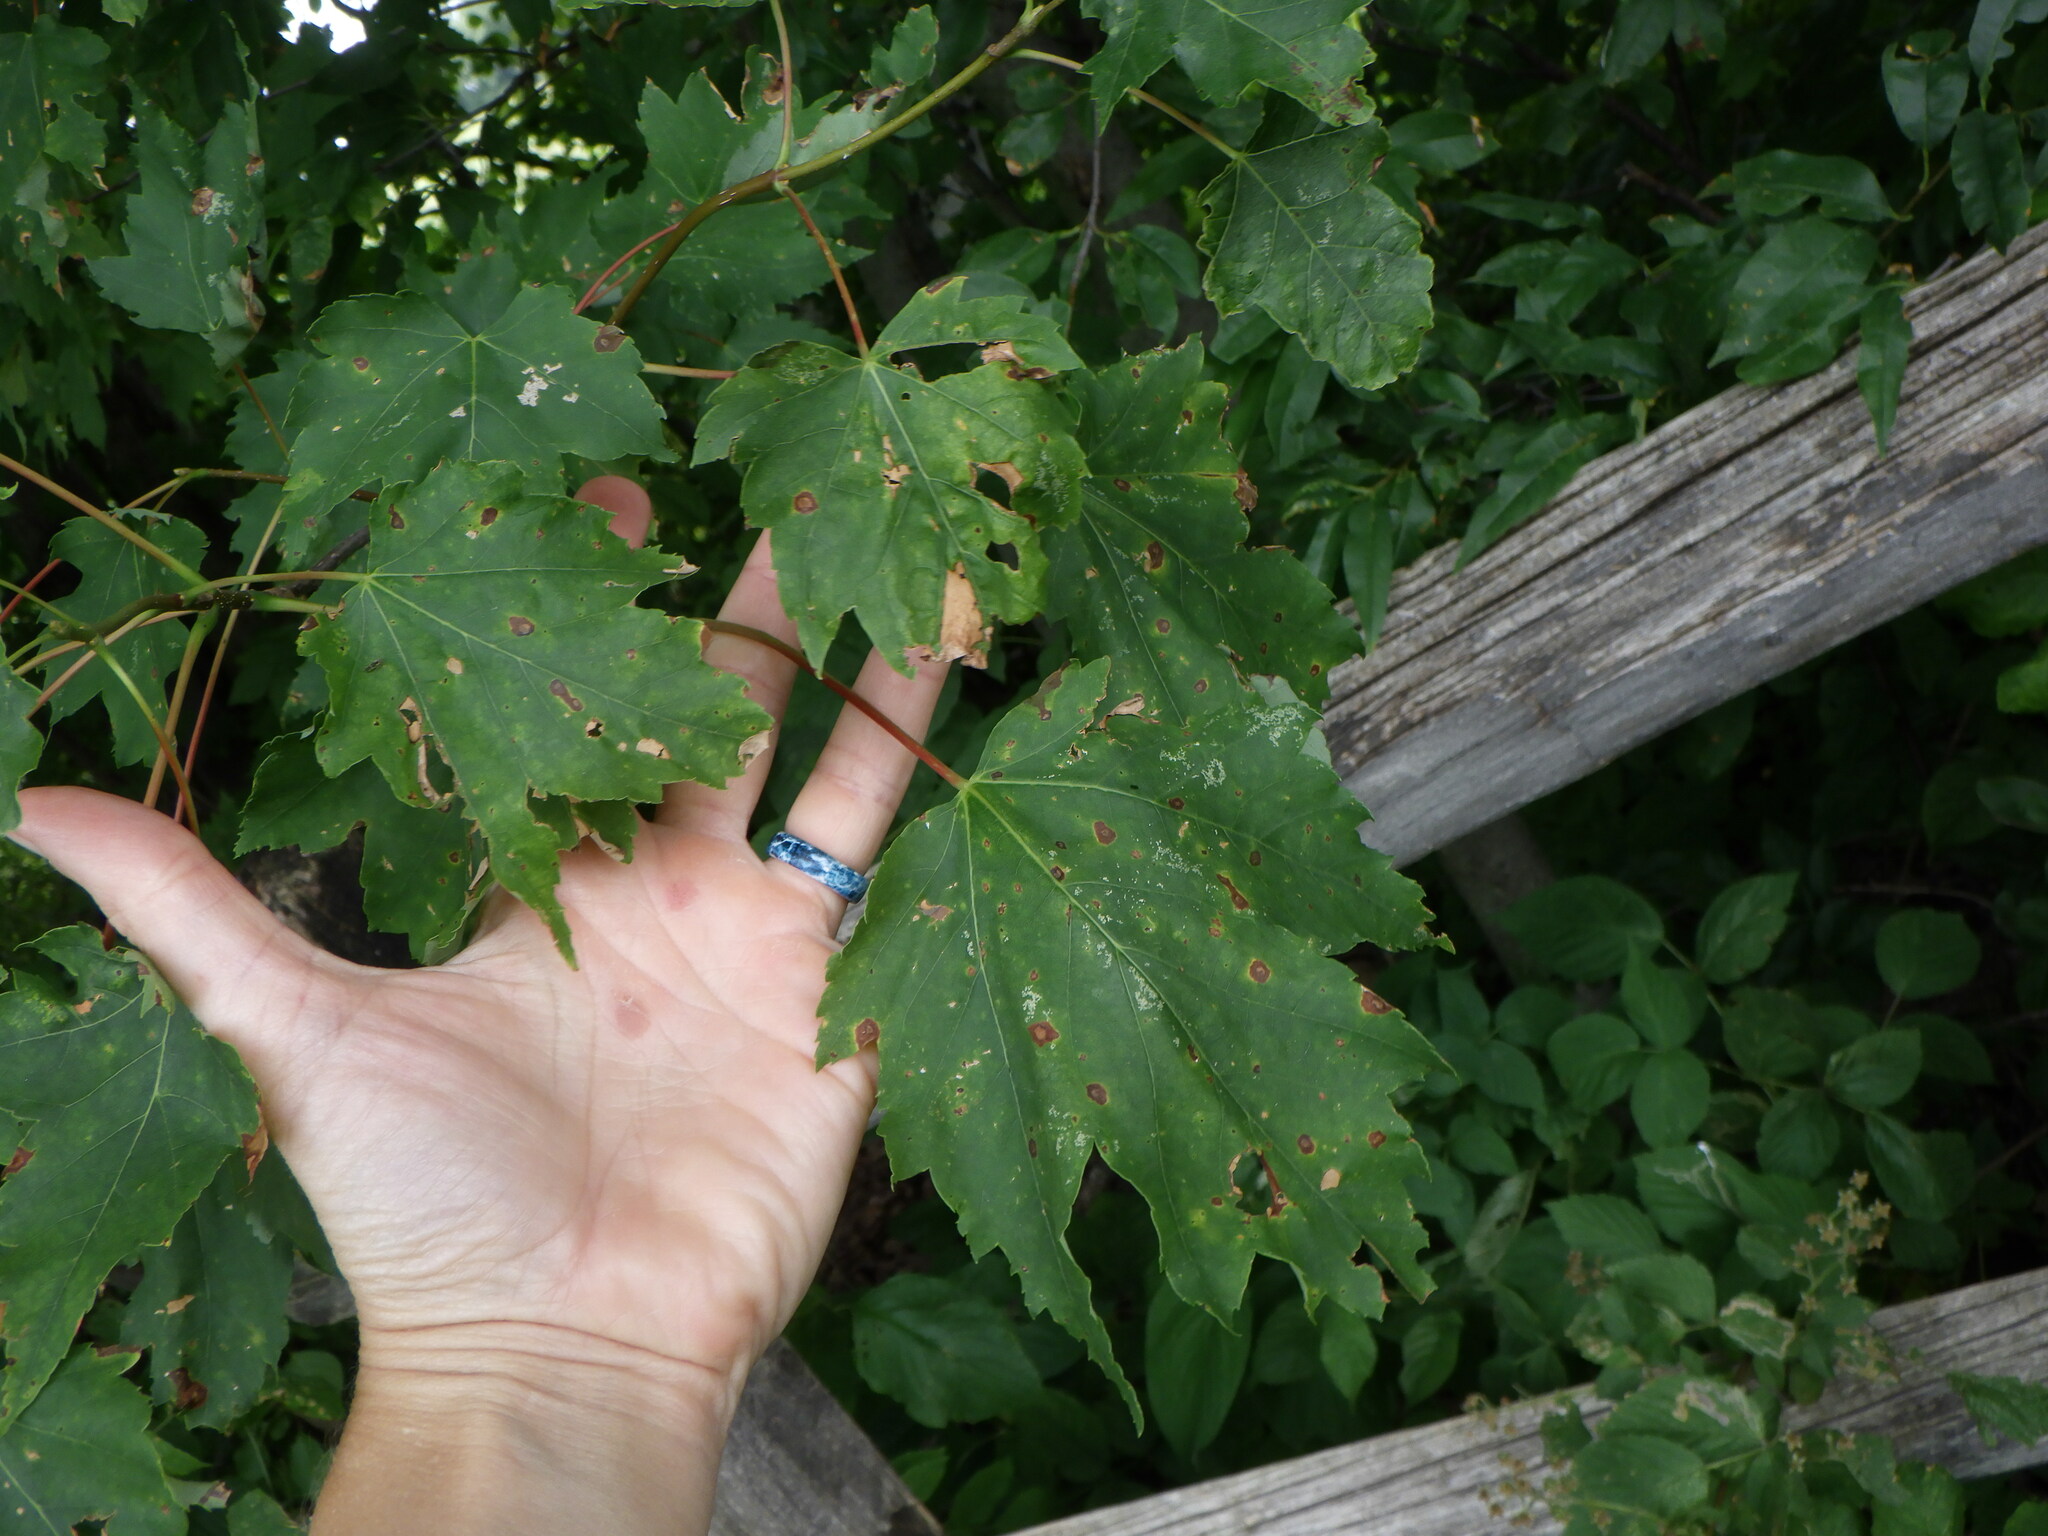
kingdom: Plantae
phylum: Tracheophyta
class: Magnoliopsida
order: Sapindales
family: Sapindaceae
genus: Acer
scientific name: Acer rubrum
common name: Red maple
